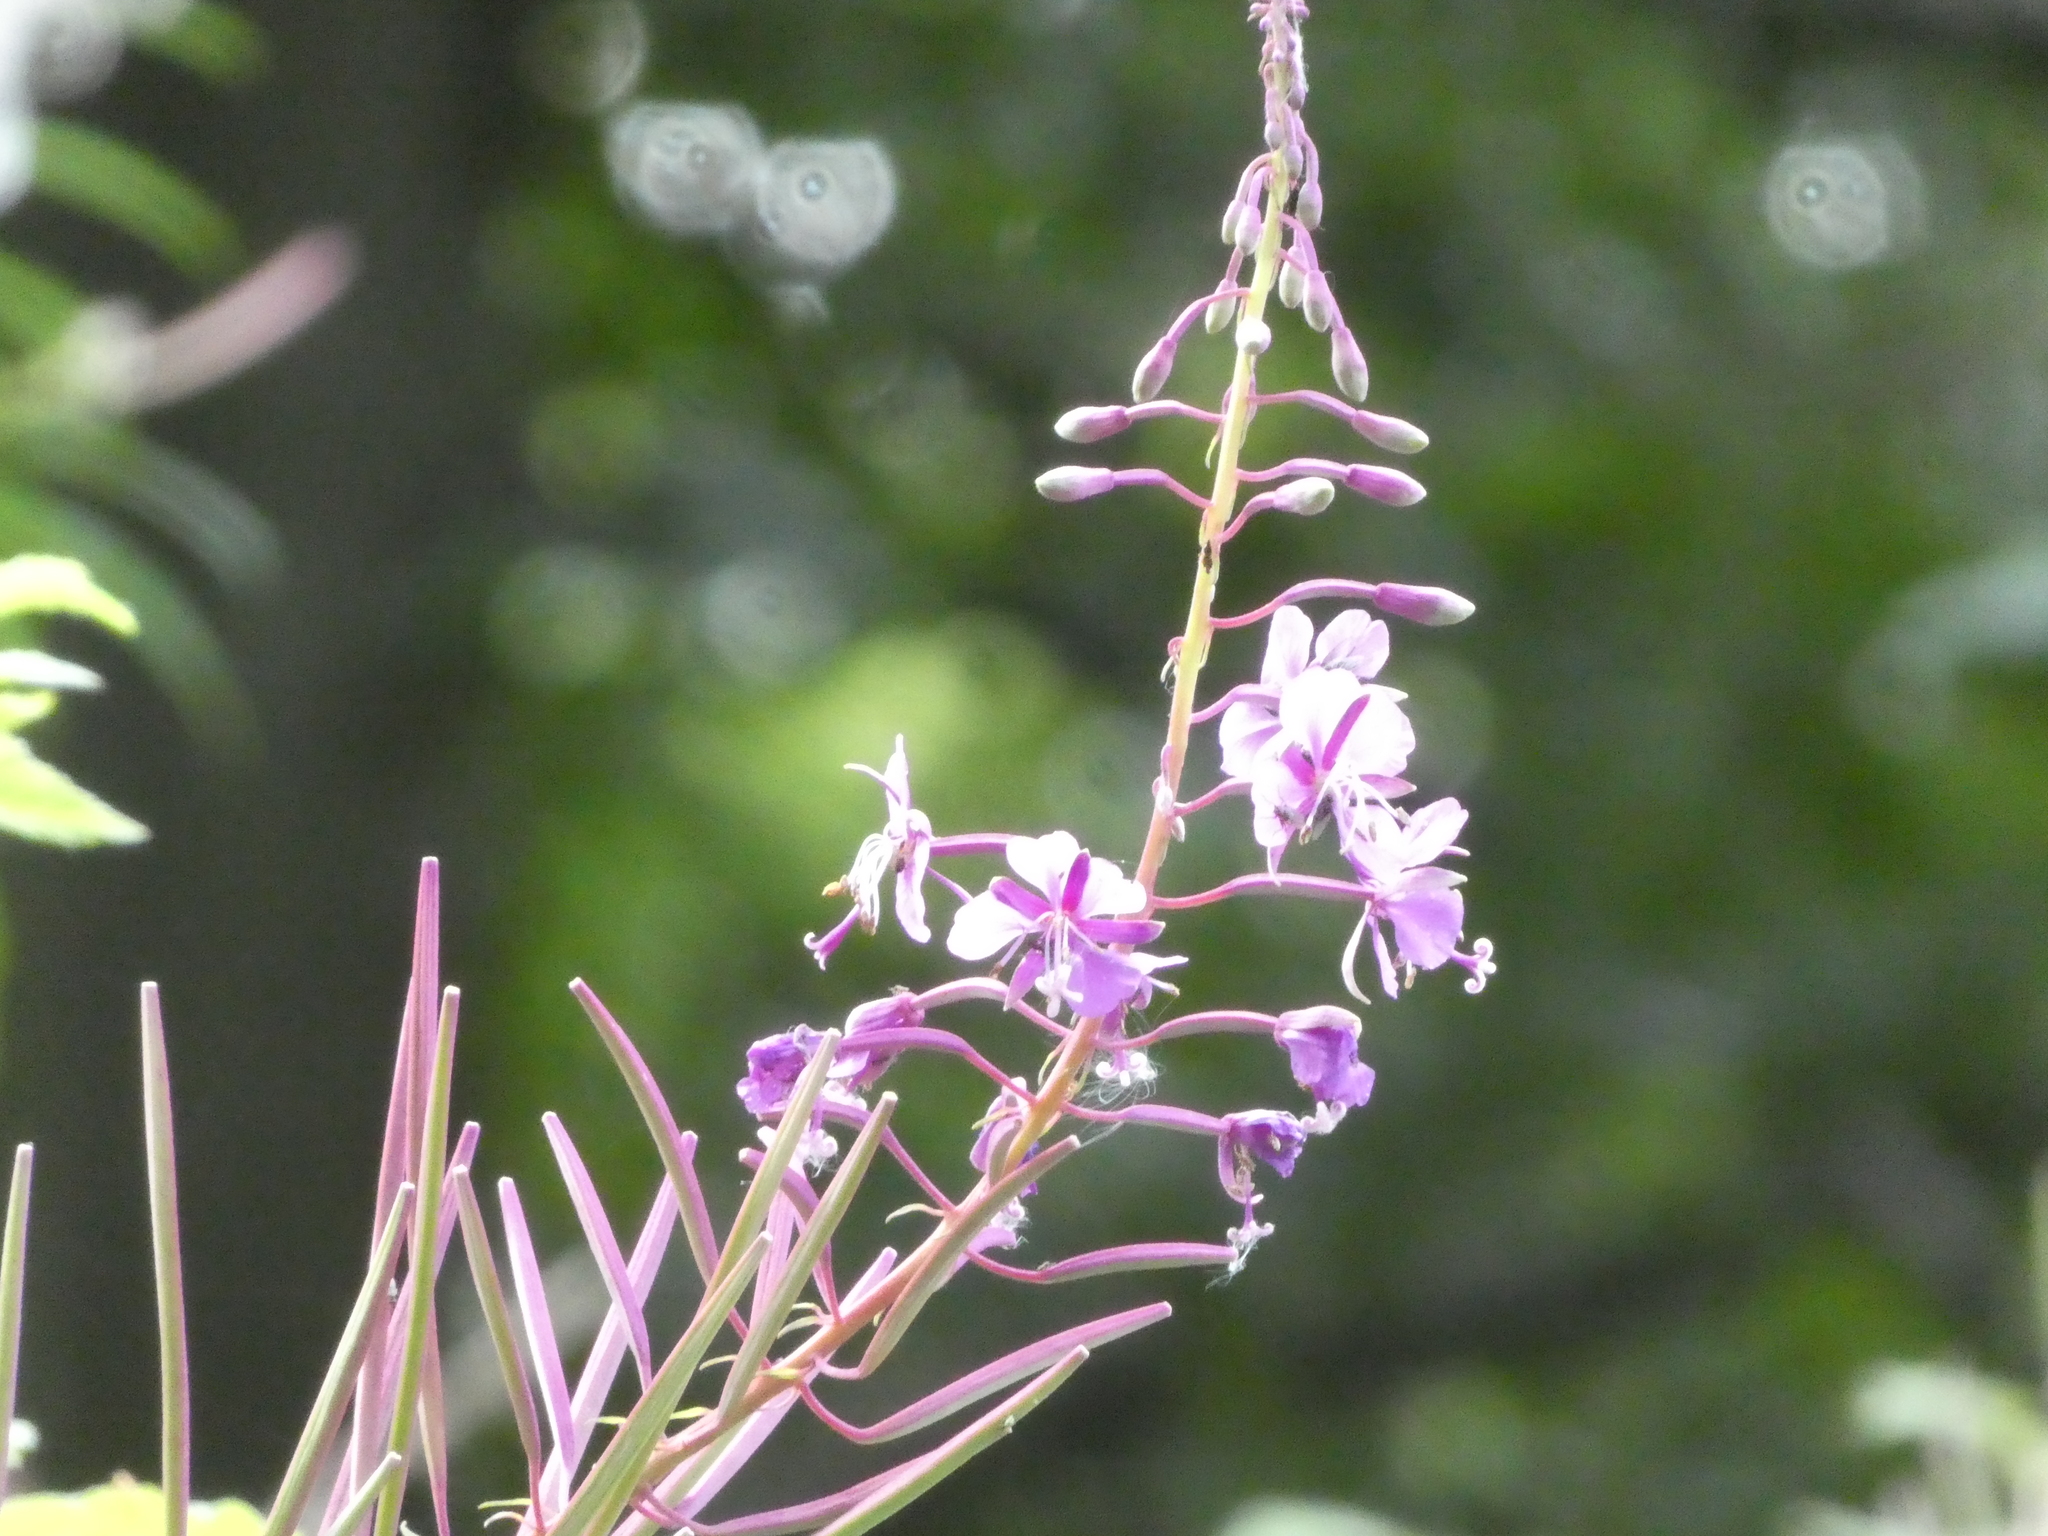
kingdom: Plantae
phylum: Tracheophyta
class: Magnoliopsida
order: Myrtales
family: Onagraceae
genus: Chamaenerion
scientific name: Chamaenerion angustifolium
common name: Fireweed
